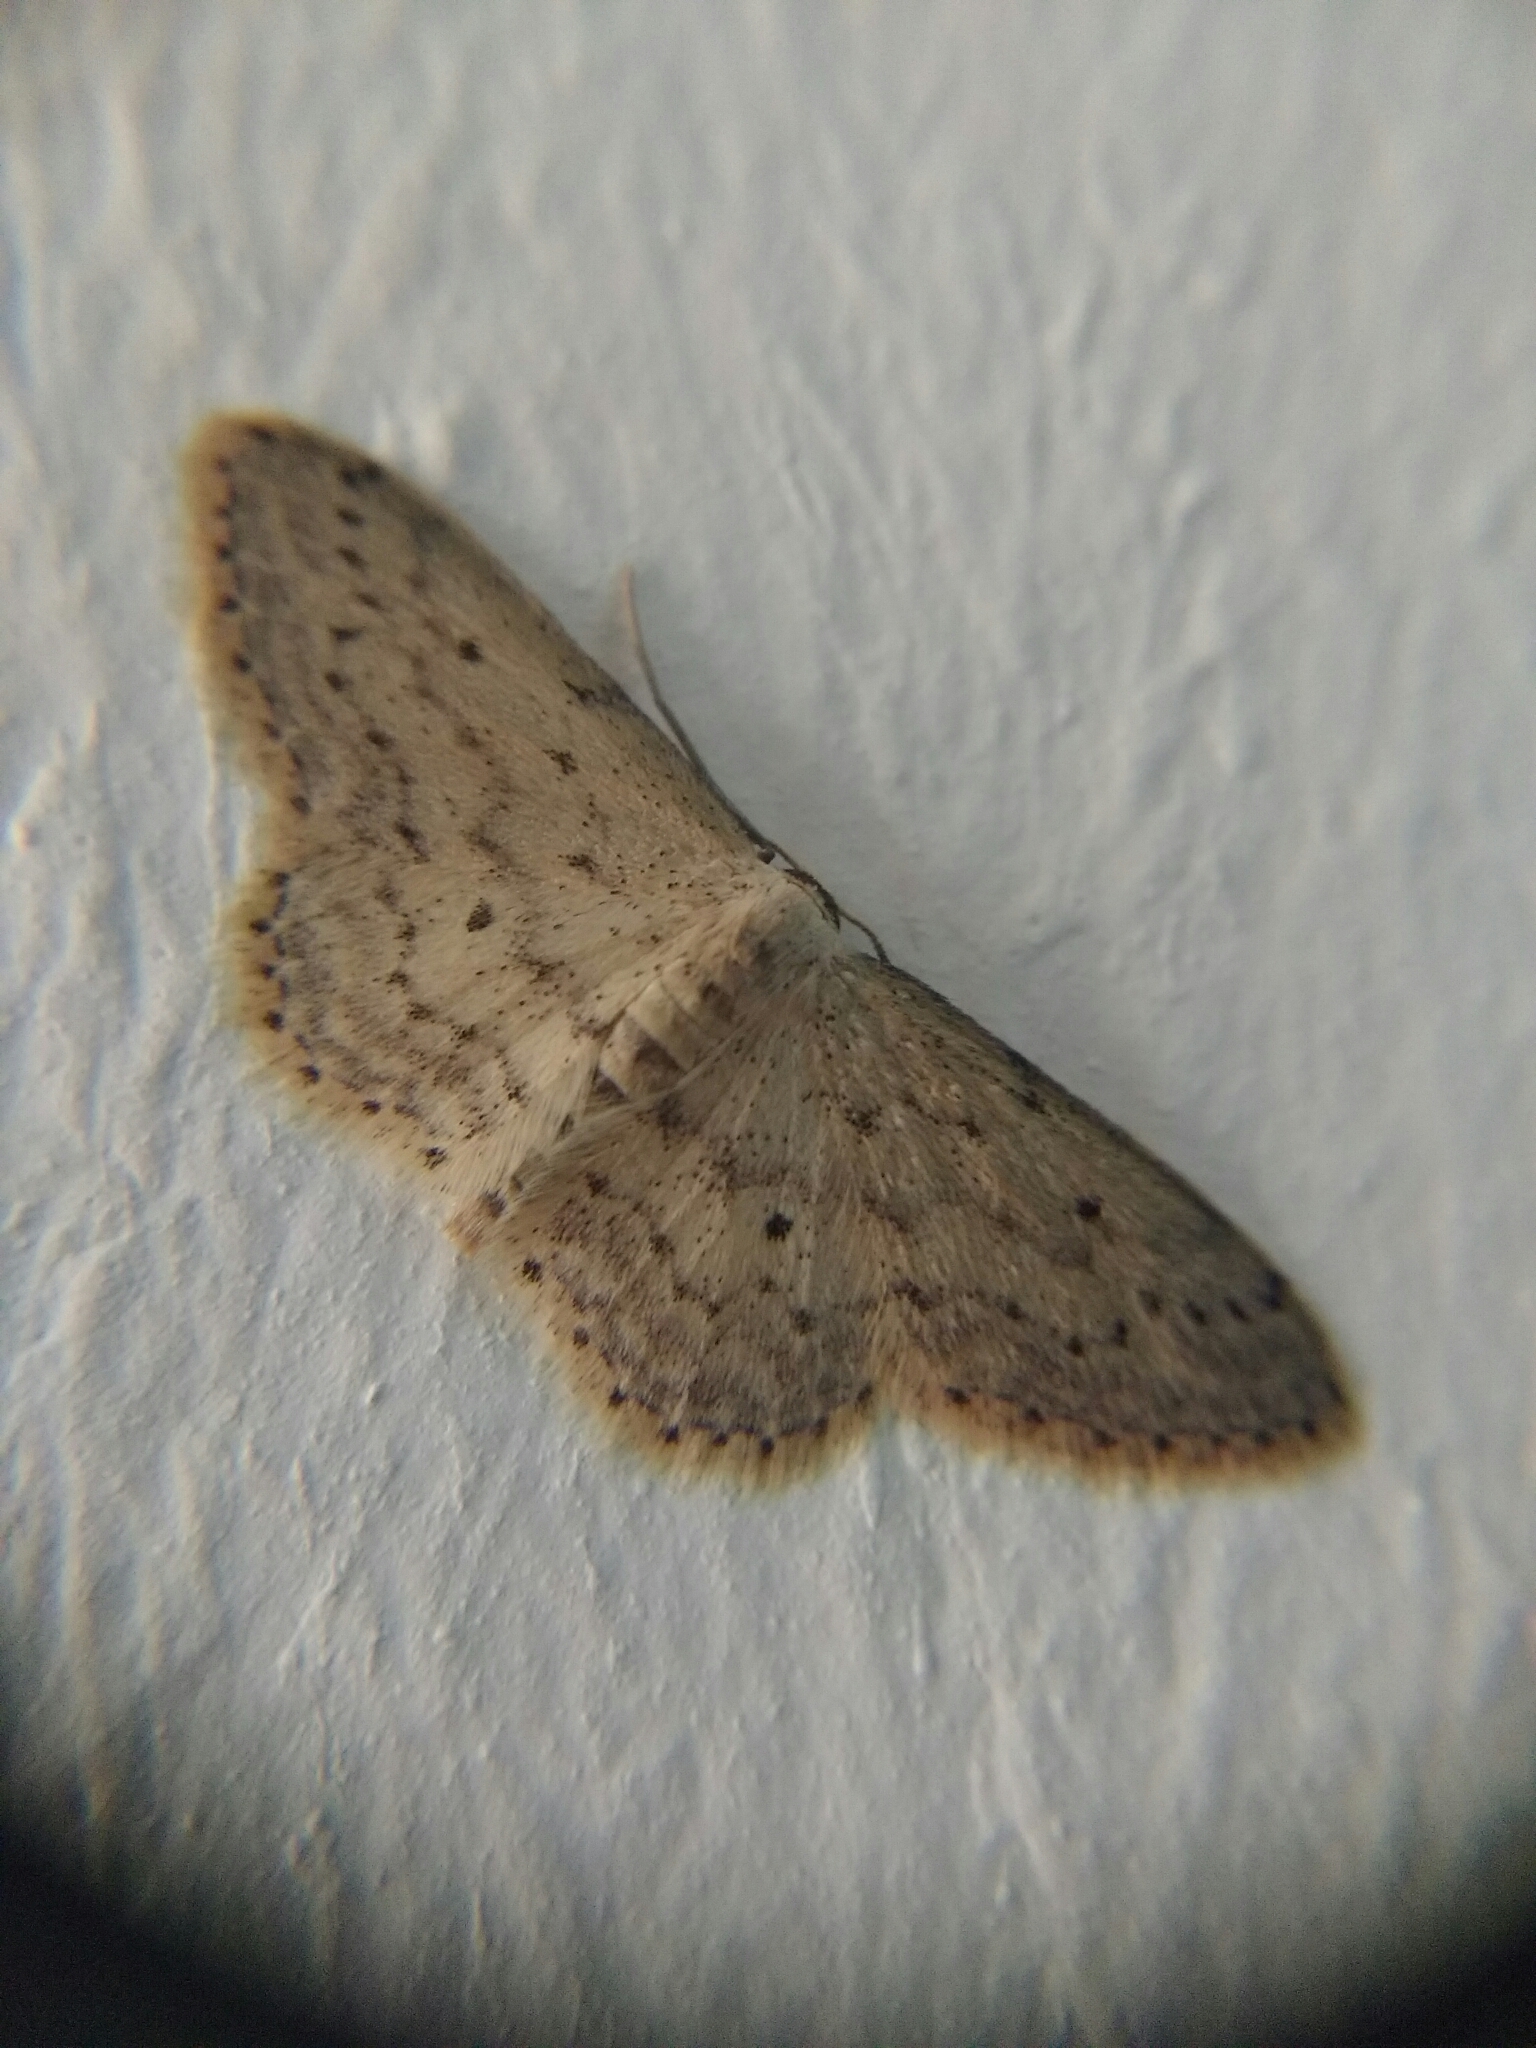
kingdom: Animalia
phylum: Arthropoda
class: Insecta
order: Lepidoptera
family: Geometridae
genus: Idaea
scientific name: Idaea seriata
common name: Small dusty wave
